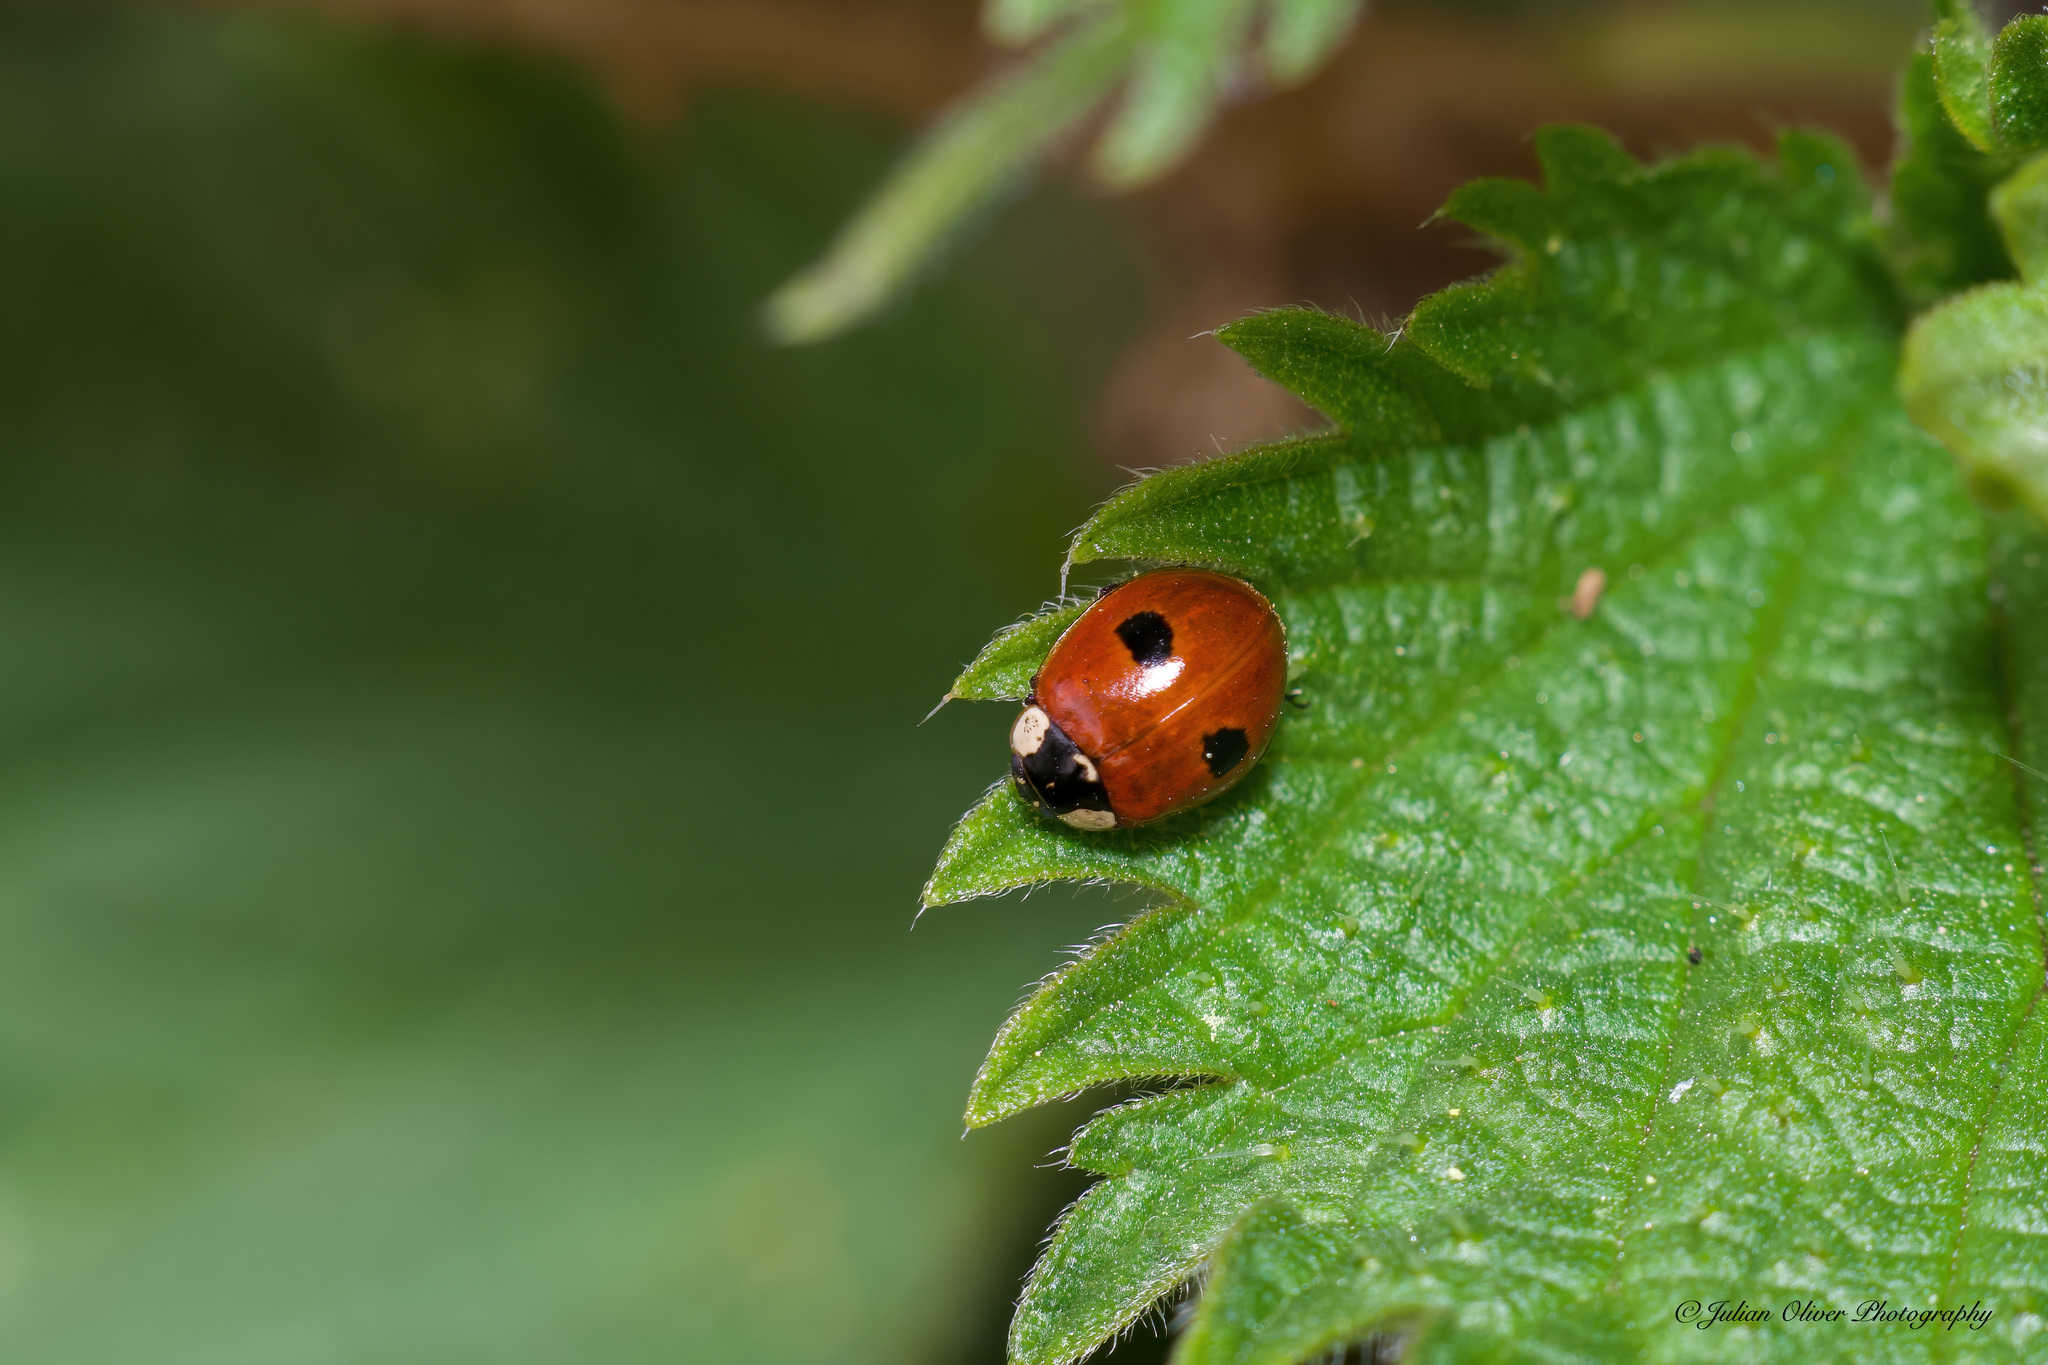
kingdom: Animalia
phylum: Arthropoda
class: Insecta
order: Coleoptera
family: Coccinellidae
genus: Adalia
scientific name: Adalia bipunctata
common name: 2-spot ladybird
